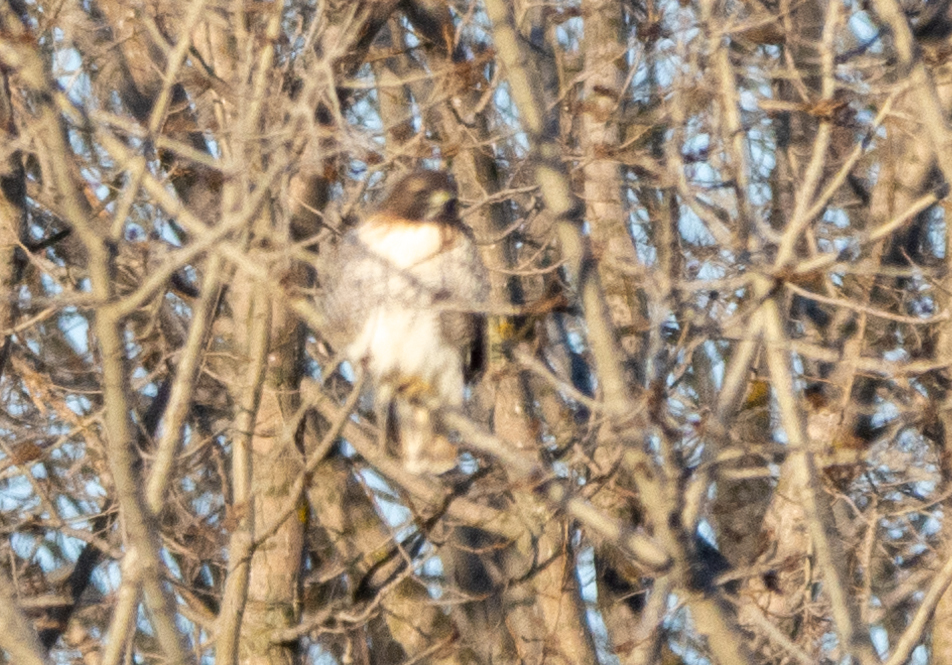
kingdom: Animalia
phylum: Chordata
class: Aves
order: Accipitriformes
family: Accipitridae
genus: Buteo
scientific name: Buteo jamaicensis
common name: Red-tailed hawk
